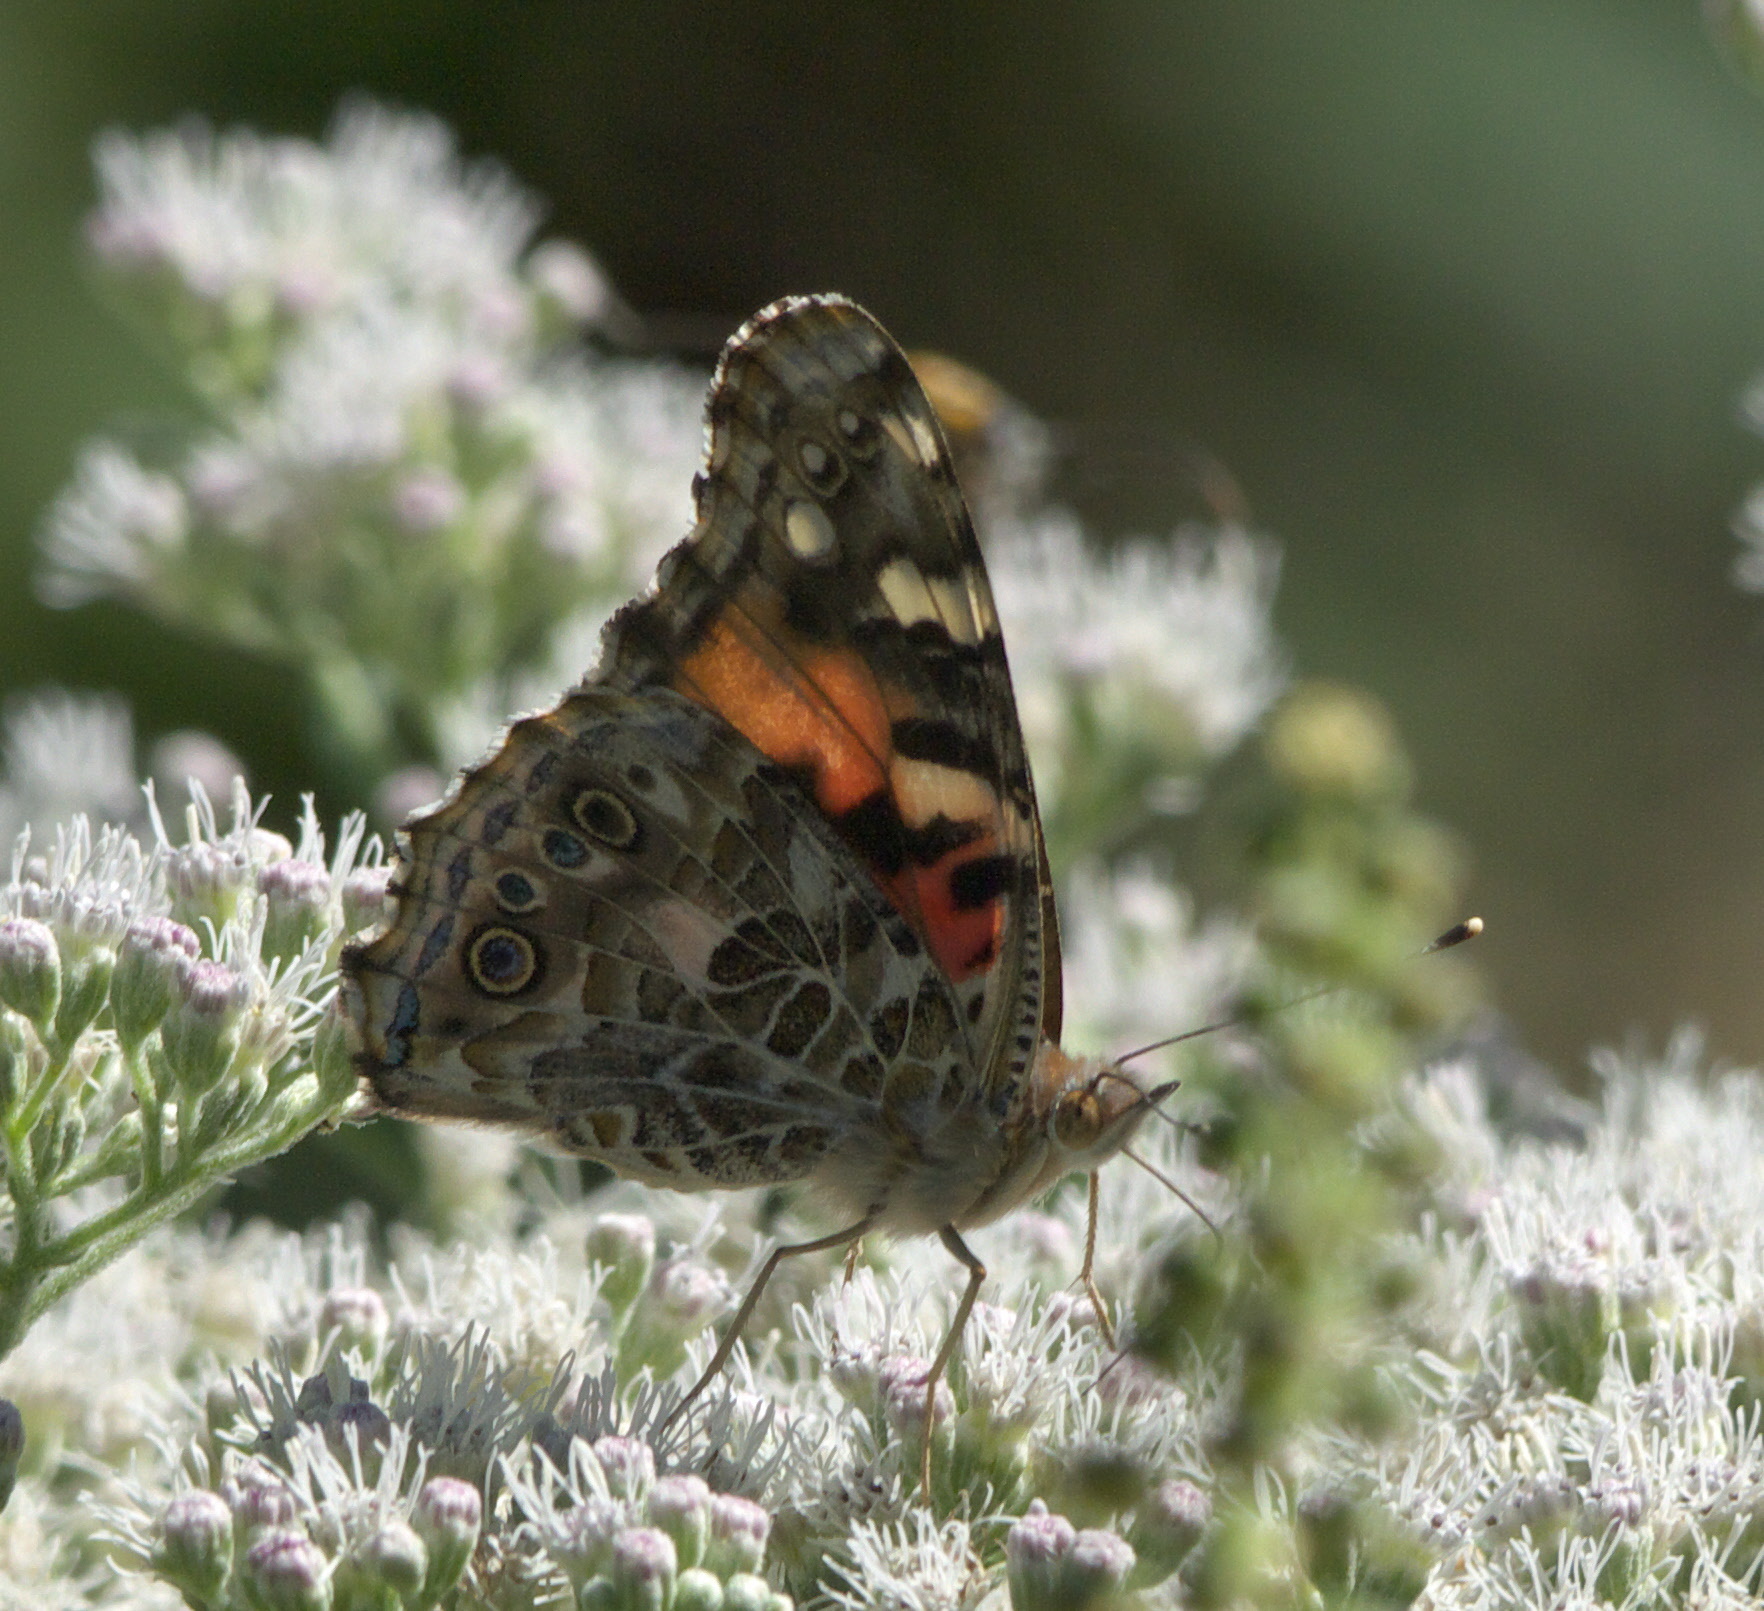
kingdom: Animalia
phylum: Arthropoda
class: Insecta
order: Lepidoptera
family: Nymphalidae
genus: Vanessa
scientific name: Vanessa cardui
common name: Painted lady
